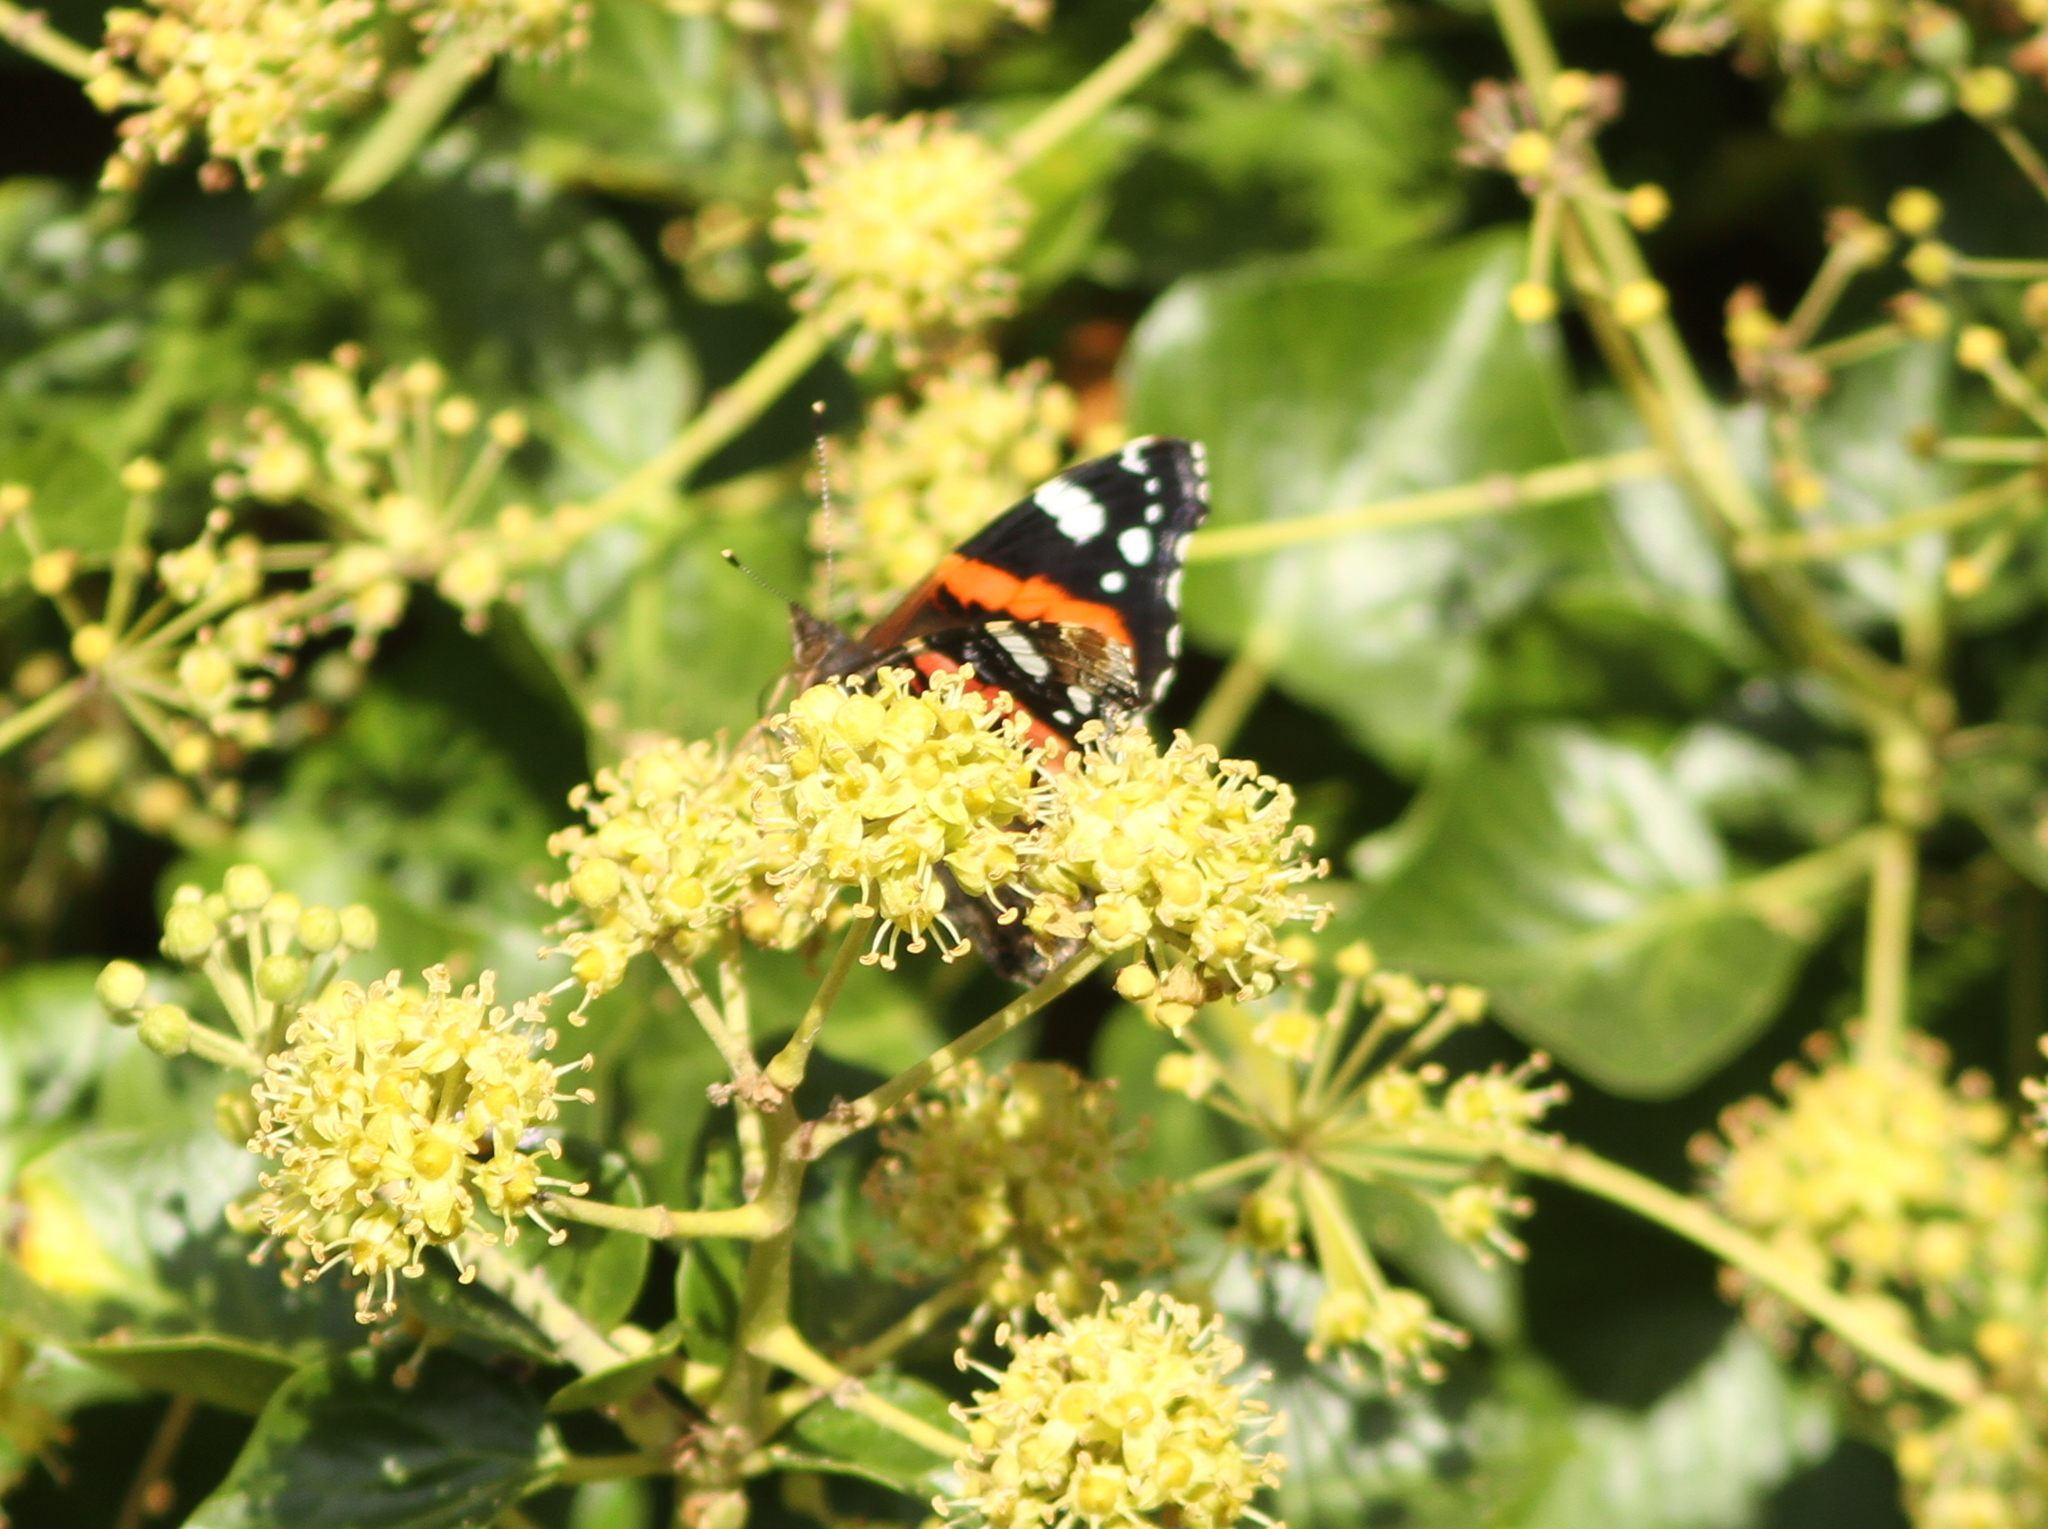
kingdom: Animalia
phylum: Arthropoda
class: Insecta
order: Lepidoptera
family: Nymphalidae
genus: Vanessa
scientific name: Vanessa atalanta
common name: Red admiral
